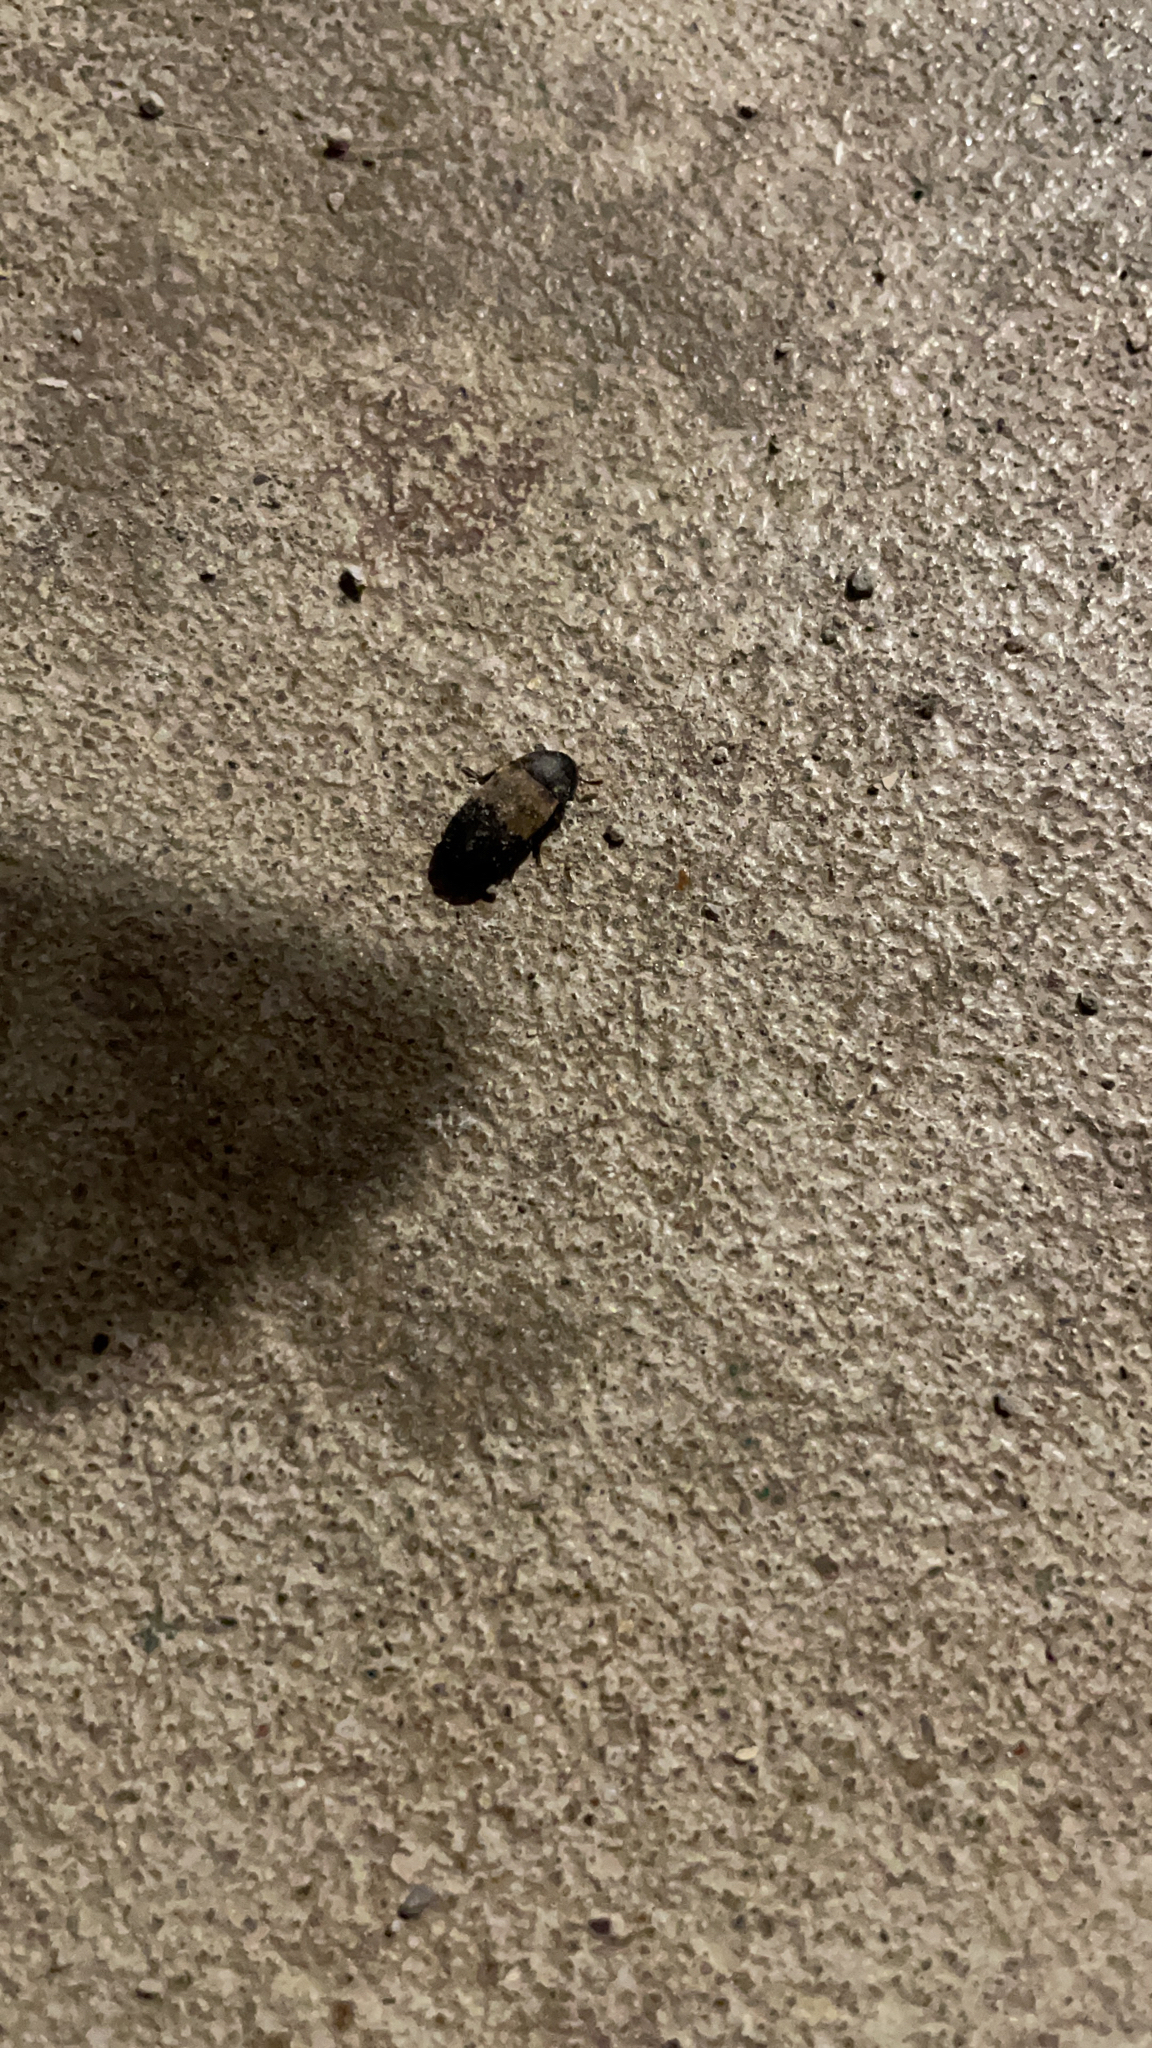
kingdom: Animalia
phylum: Arthropoda
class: Insecta
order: Coleoptera
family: Dermestidae
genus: Dermestes
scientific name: Dermestes lardarius
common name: Larder beetle
